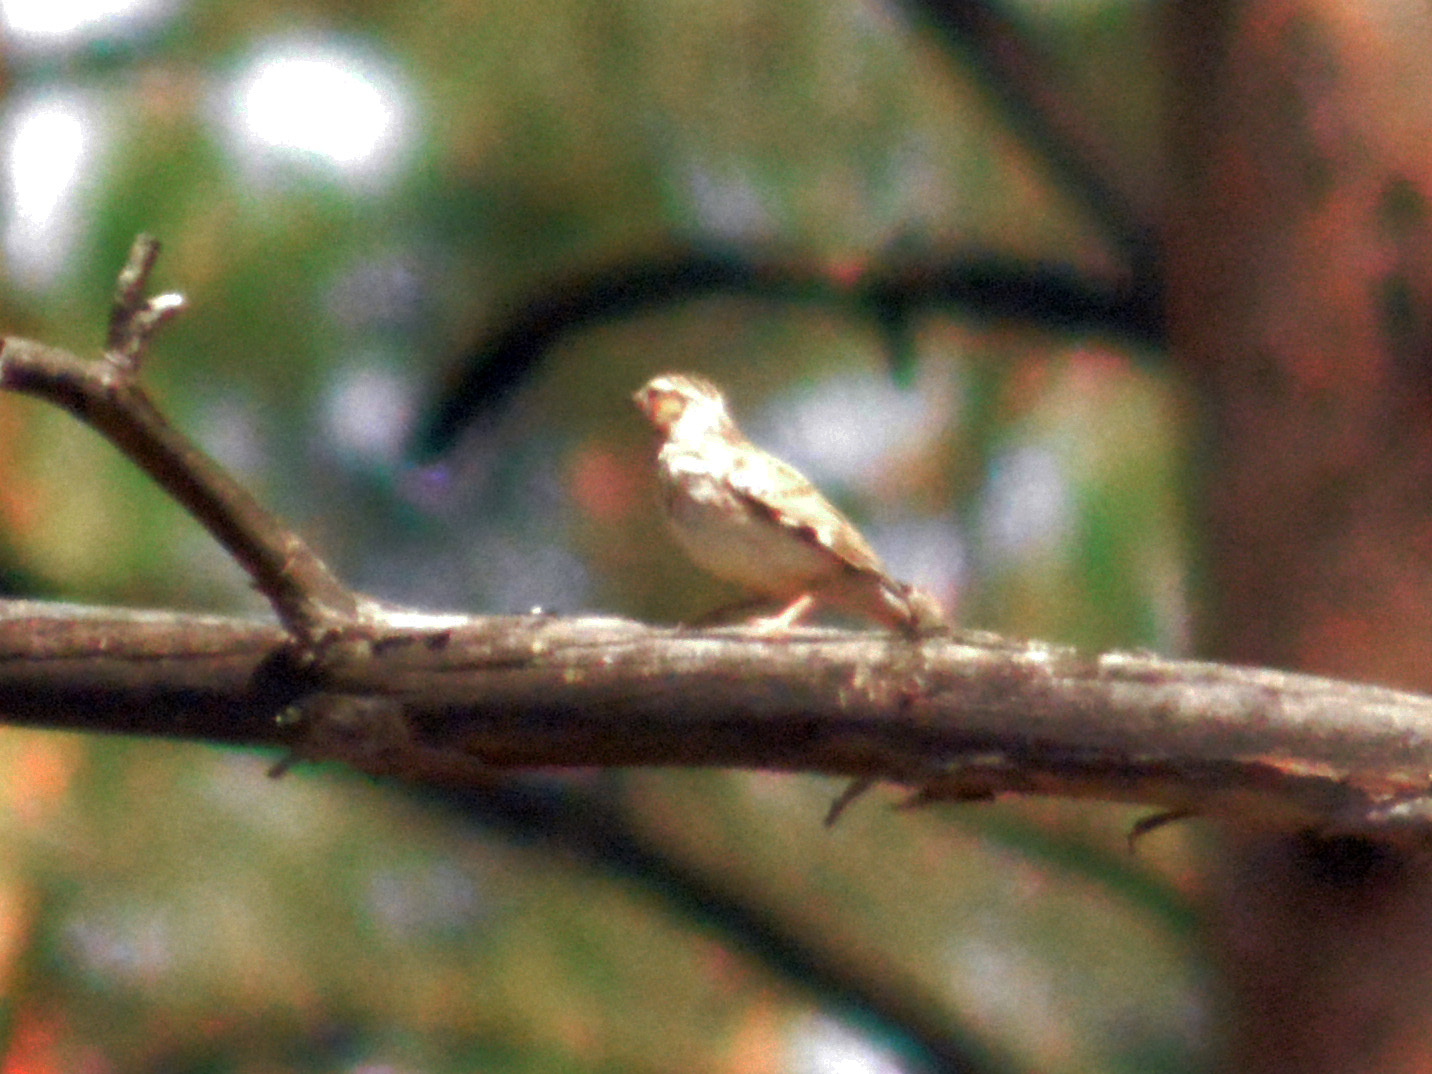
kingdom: Animalia
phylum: Chordata
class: Aves
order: Passeriformes
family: Alaudidae
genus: Lullula
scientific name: Lullula arborea
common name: Woodlark
